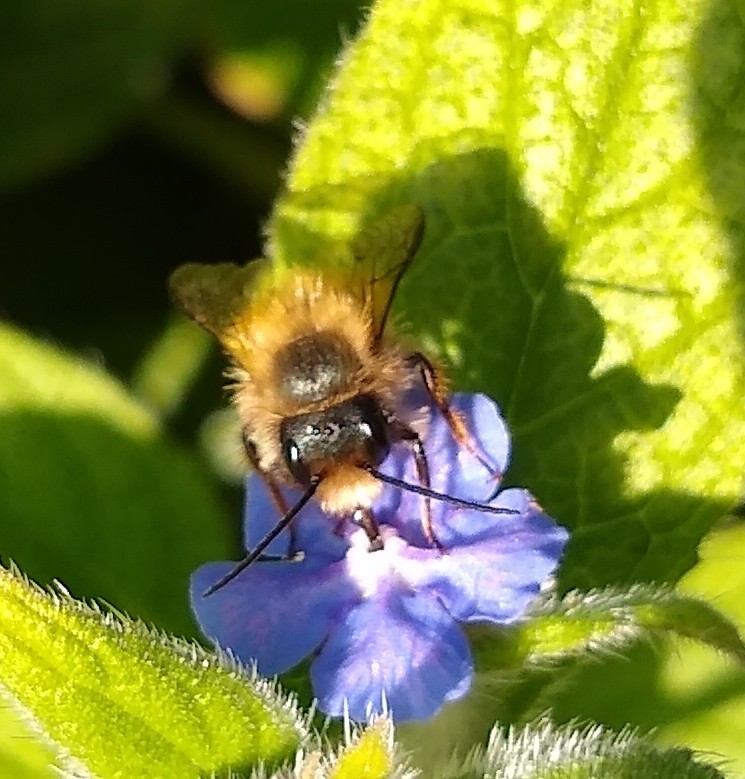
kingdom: Animalia
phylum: Arthropoda
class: Insecta
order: Hymenoptera
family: Megachilidae
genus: Osmia
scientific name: Osmia bicornis
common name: Red mason bee
